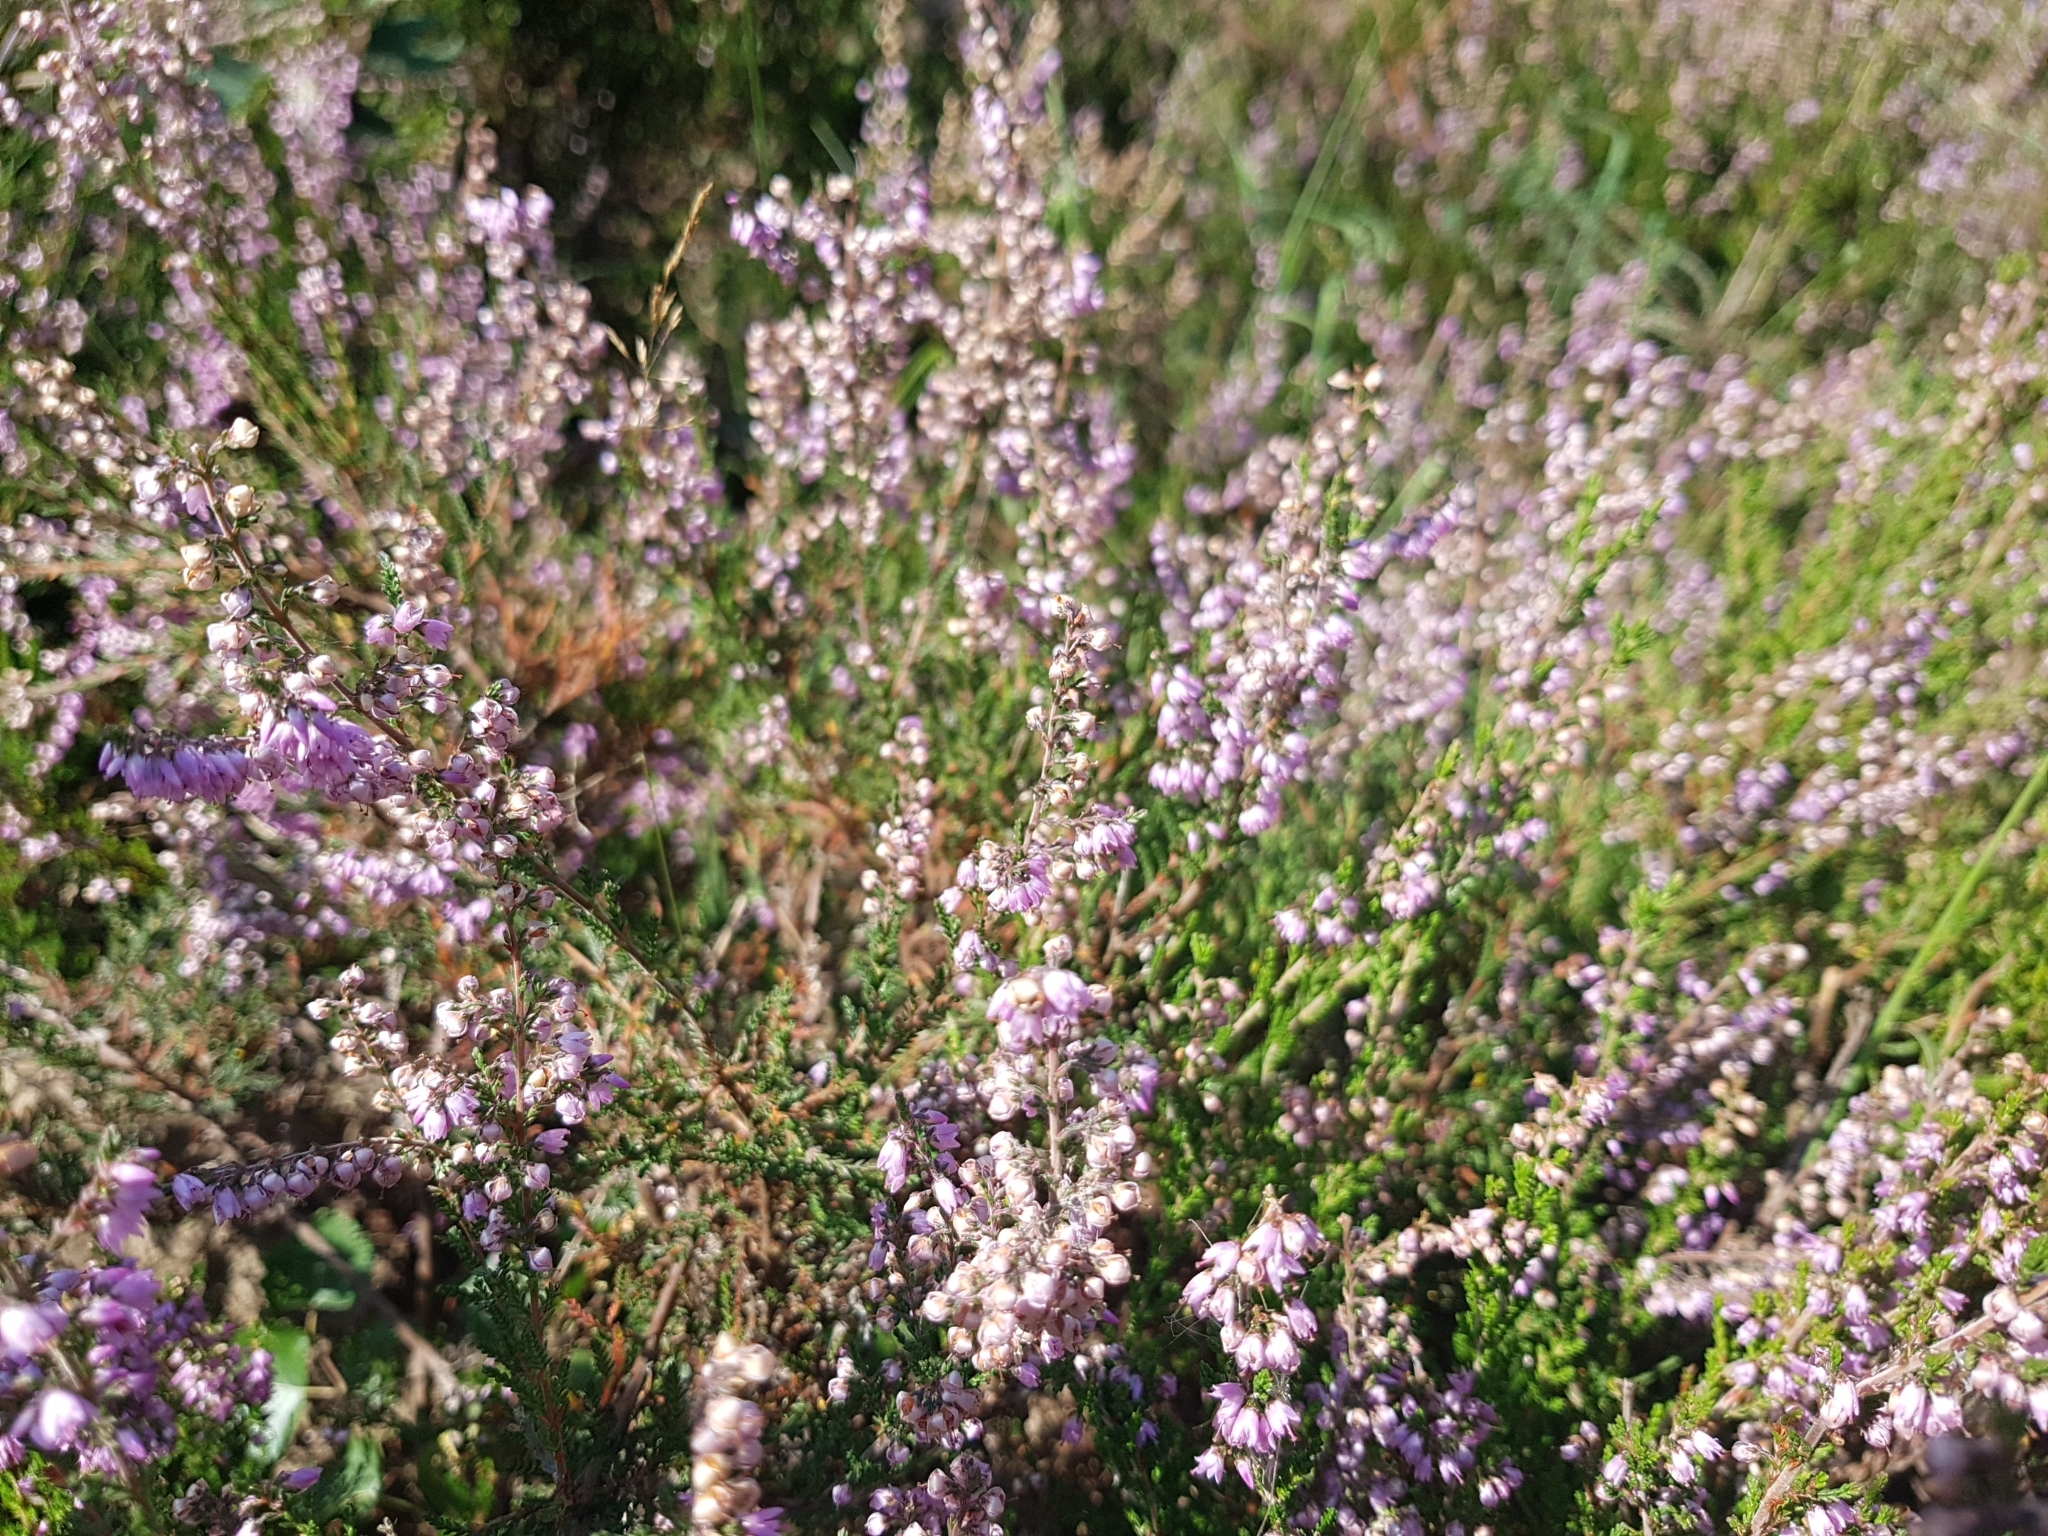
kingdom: Plantae
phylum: Tracheophyta
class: Magnoliopsida
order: Ericales
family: Ericaceae
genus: Calluna
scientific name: Calluna vulgaris
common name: Heather
